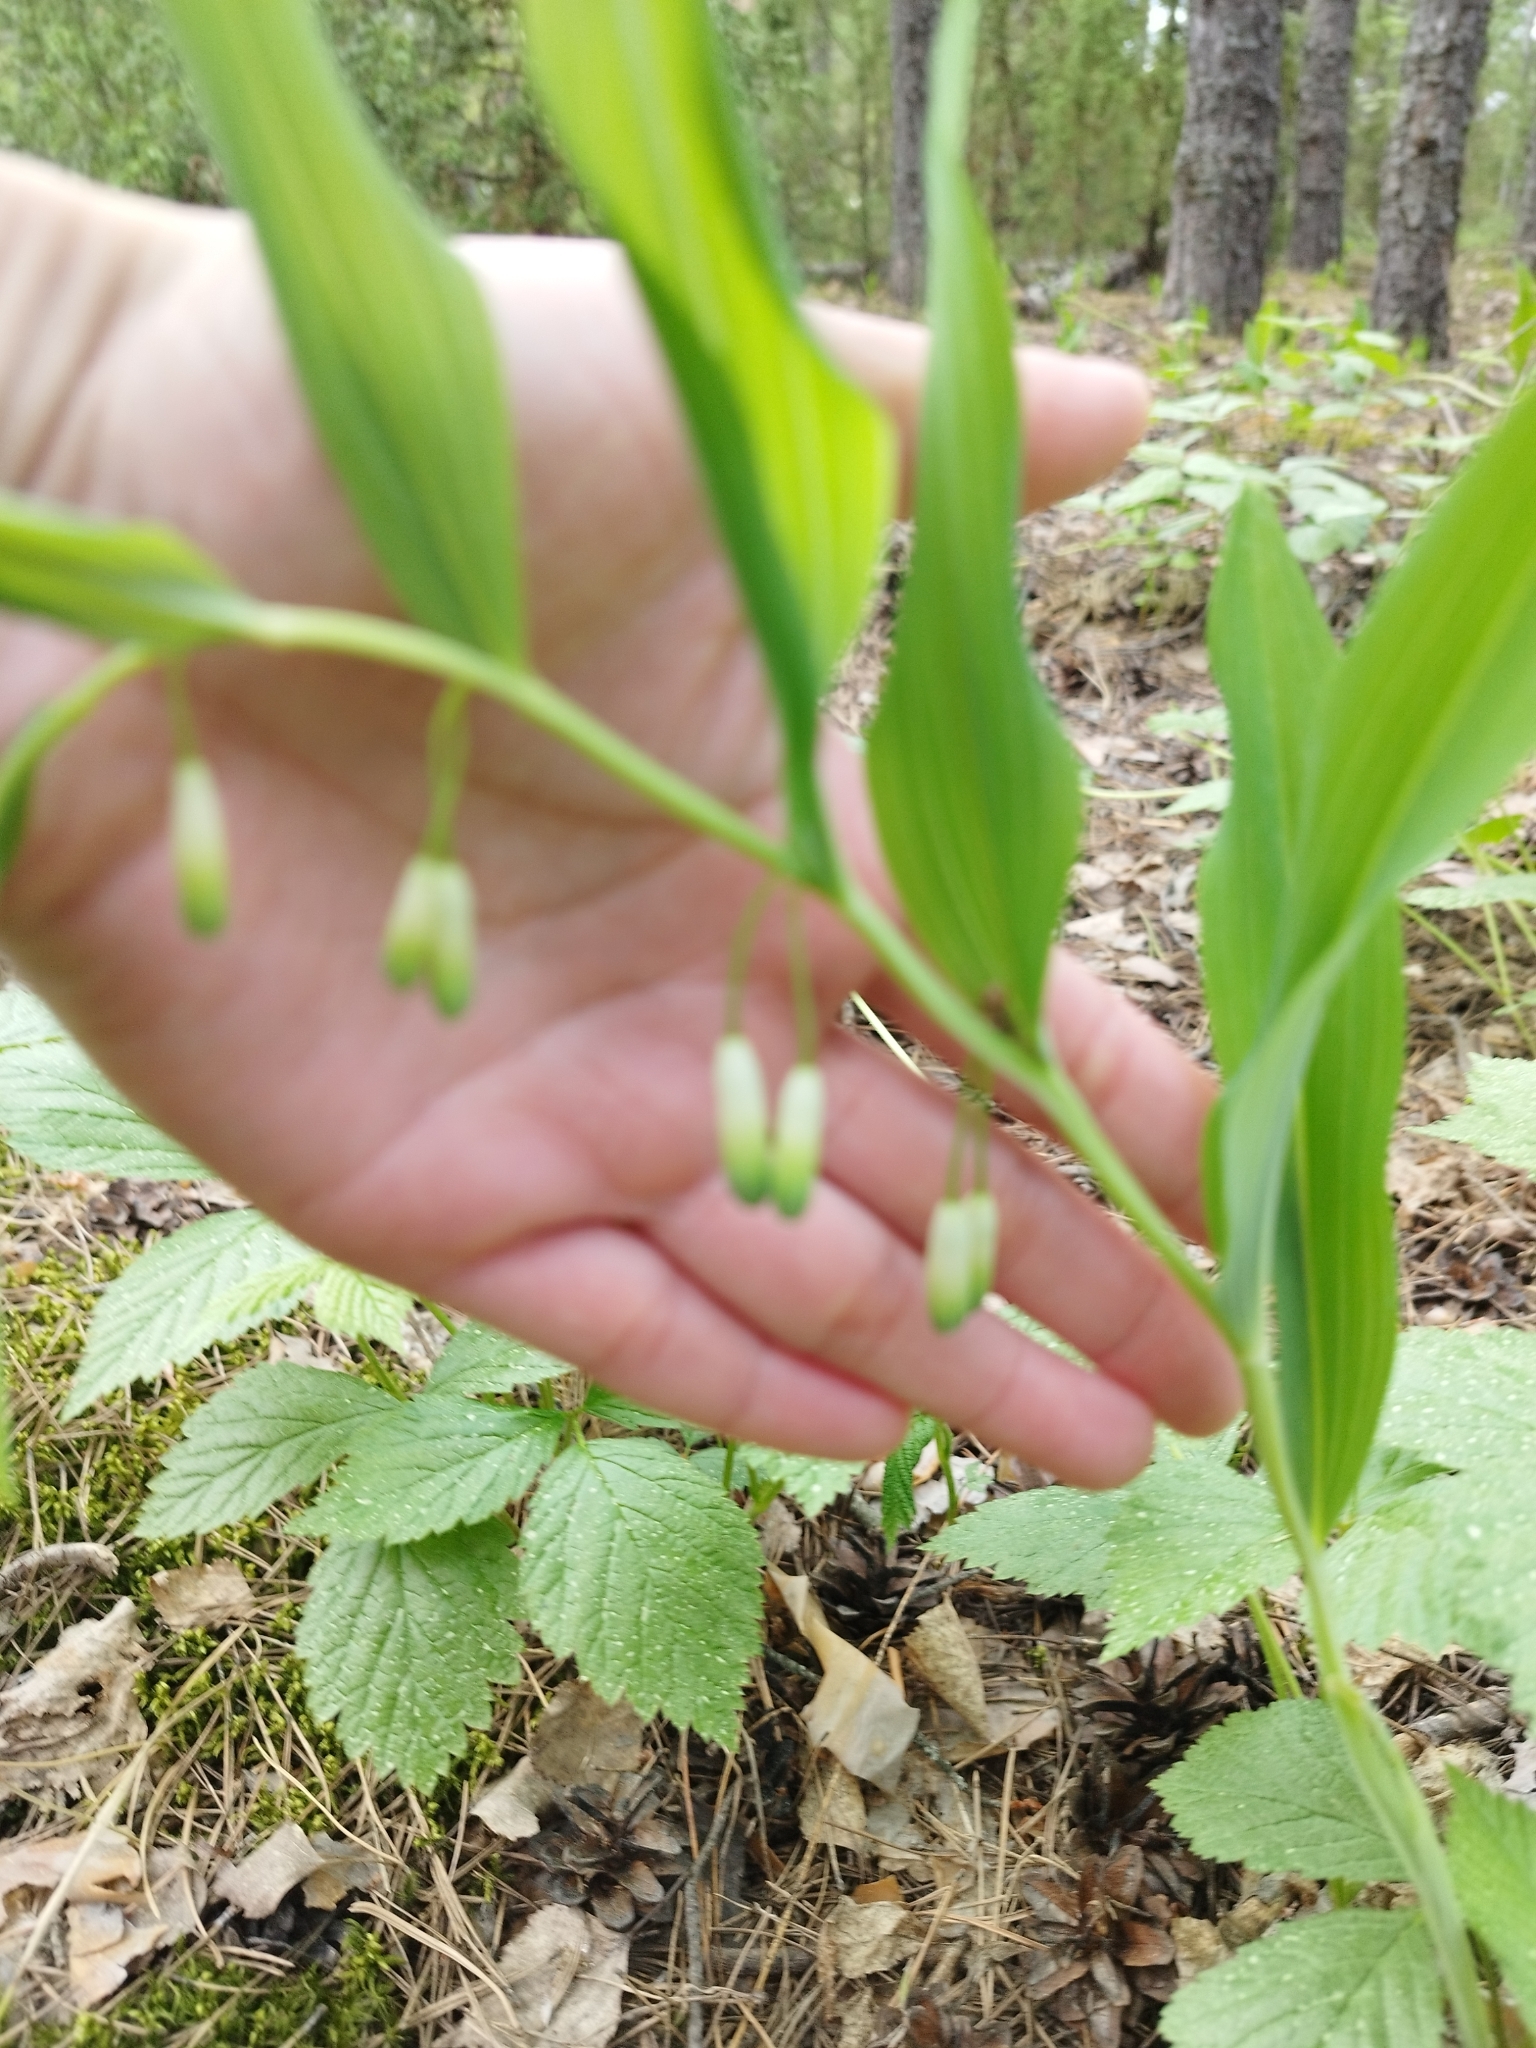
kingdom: Plantae
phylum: Tracheophyta
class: Liliopsida
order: Asparagales
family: Asparagaceae
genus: Polygonatum
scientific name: Polygonatum odoratum
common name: Angular solomon's-seal
